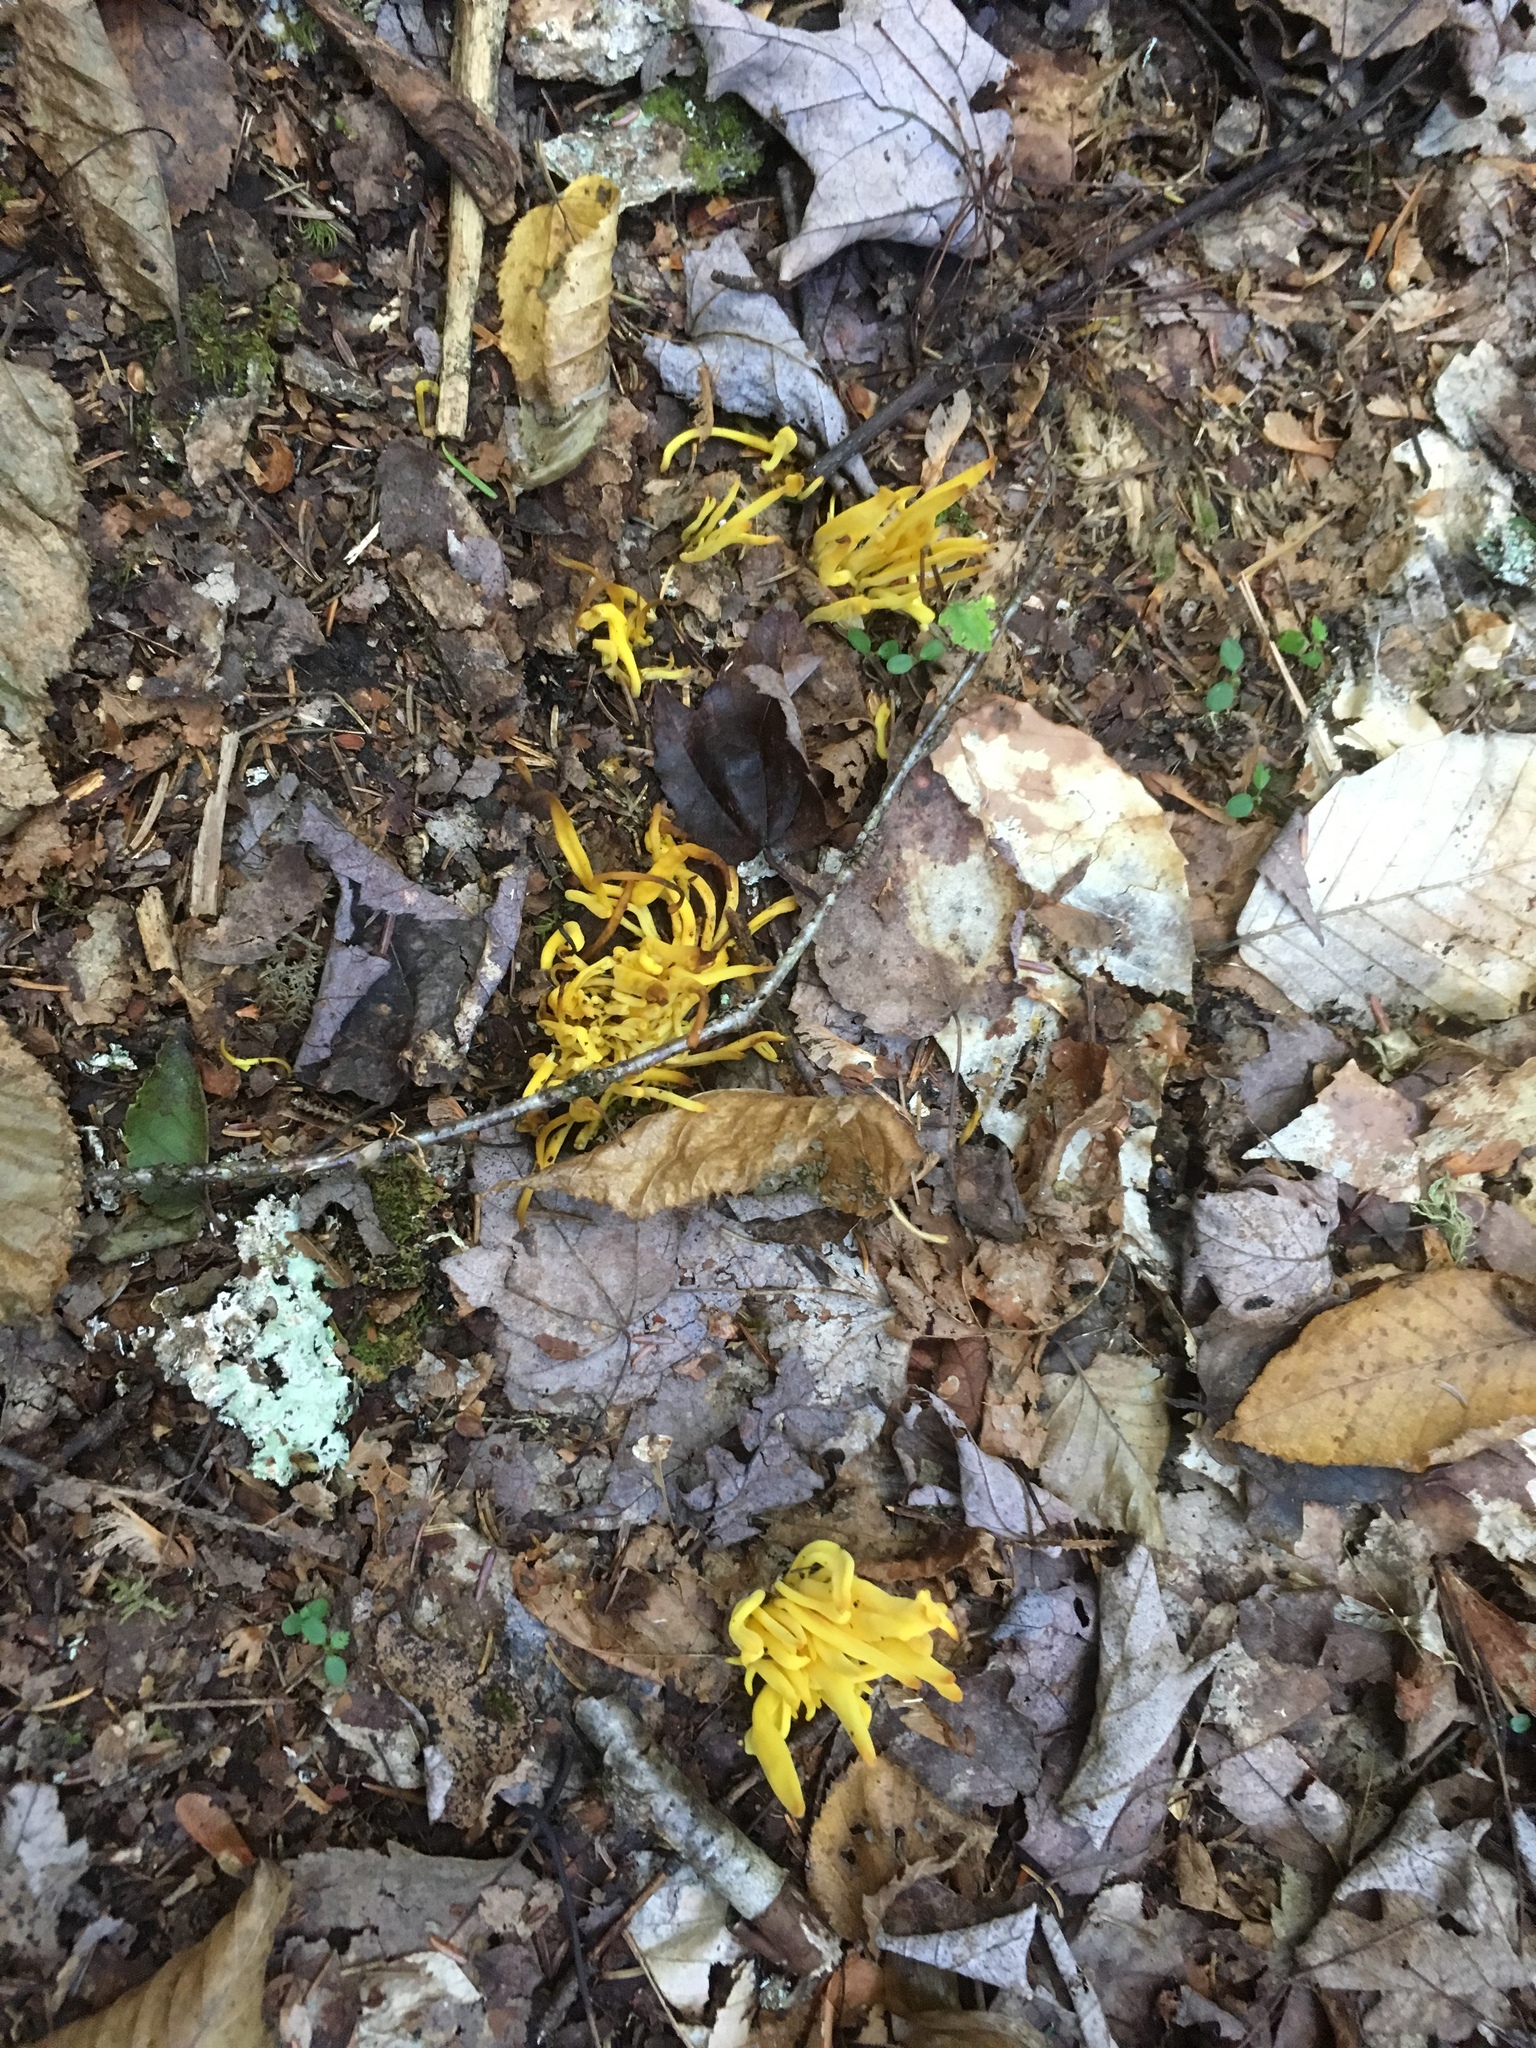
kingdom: Fungi
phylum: Basidiomycota
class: Agaricomycetes
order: Agaricales
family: Clavariaceae
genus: Clavulinopsis
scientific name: Clavulinopsis fusiformis
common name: Golden spindles
